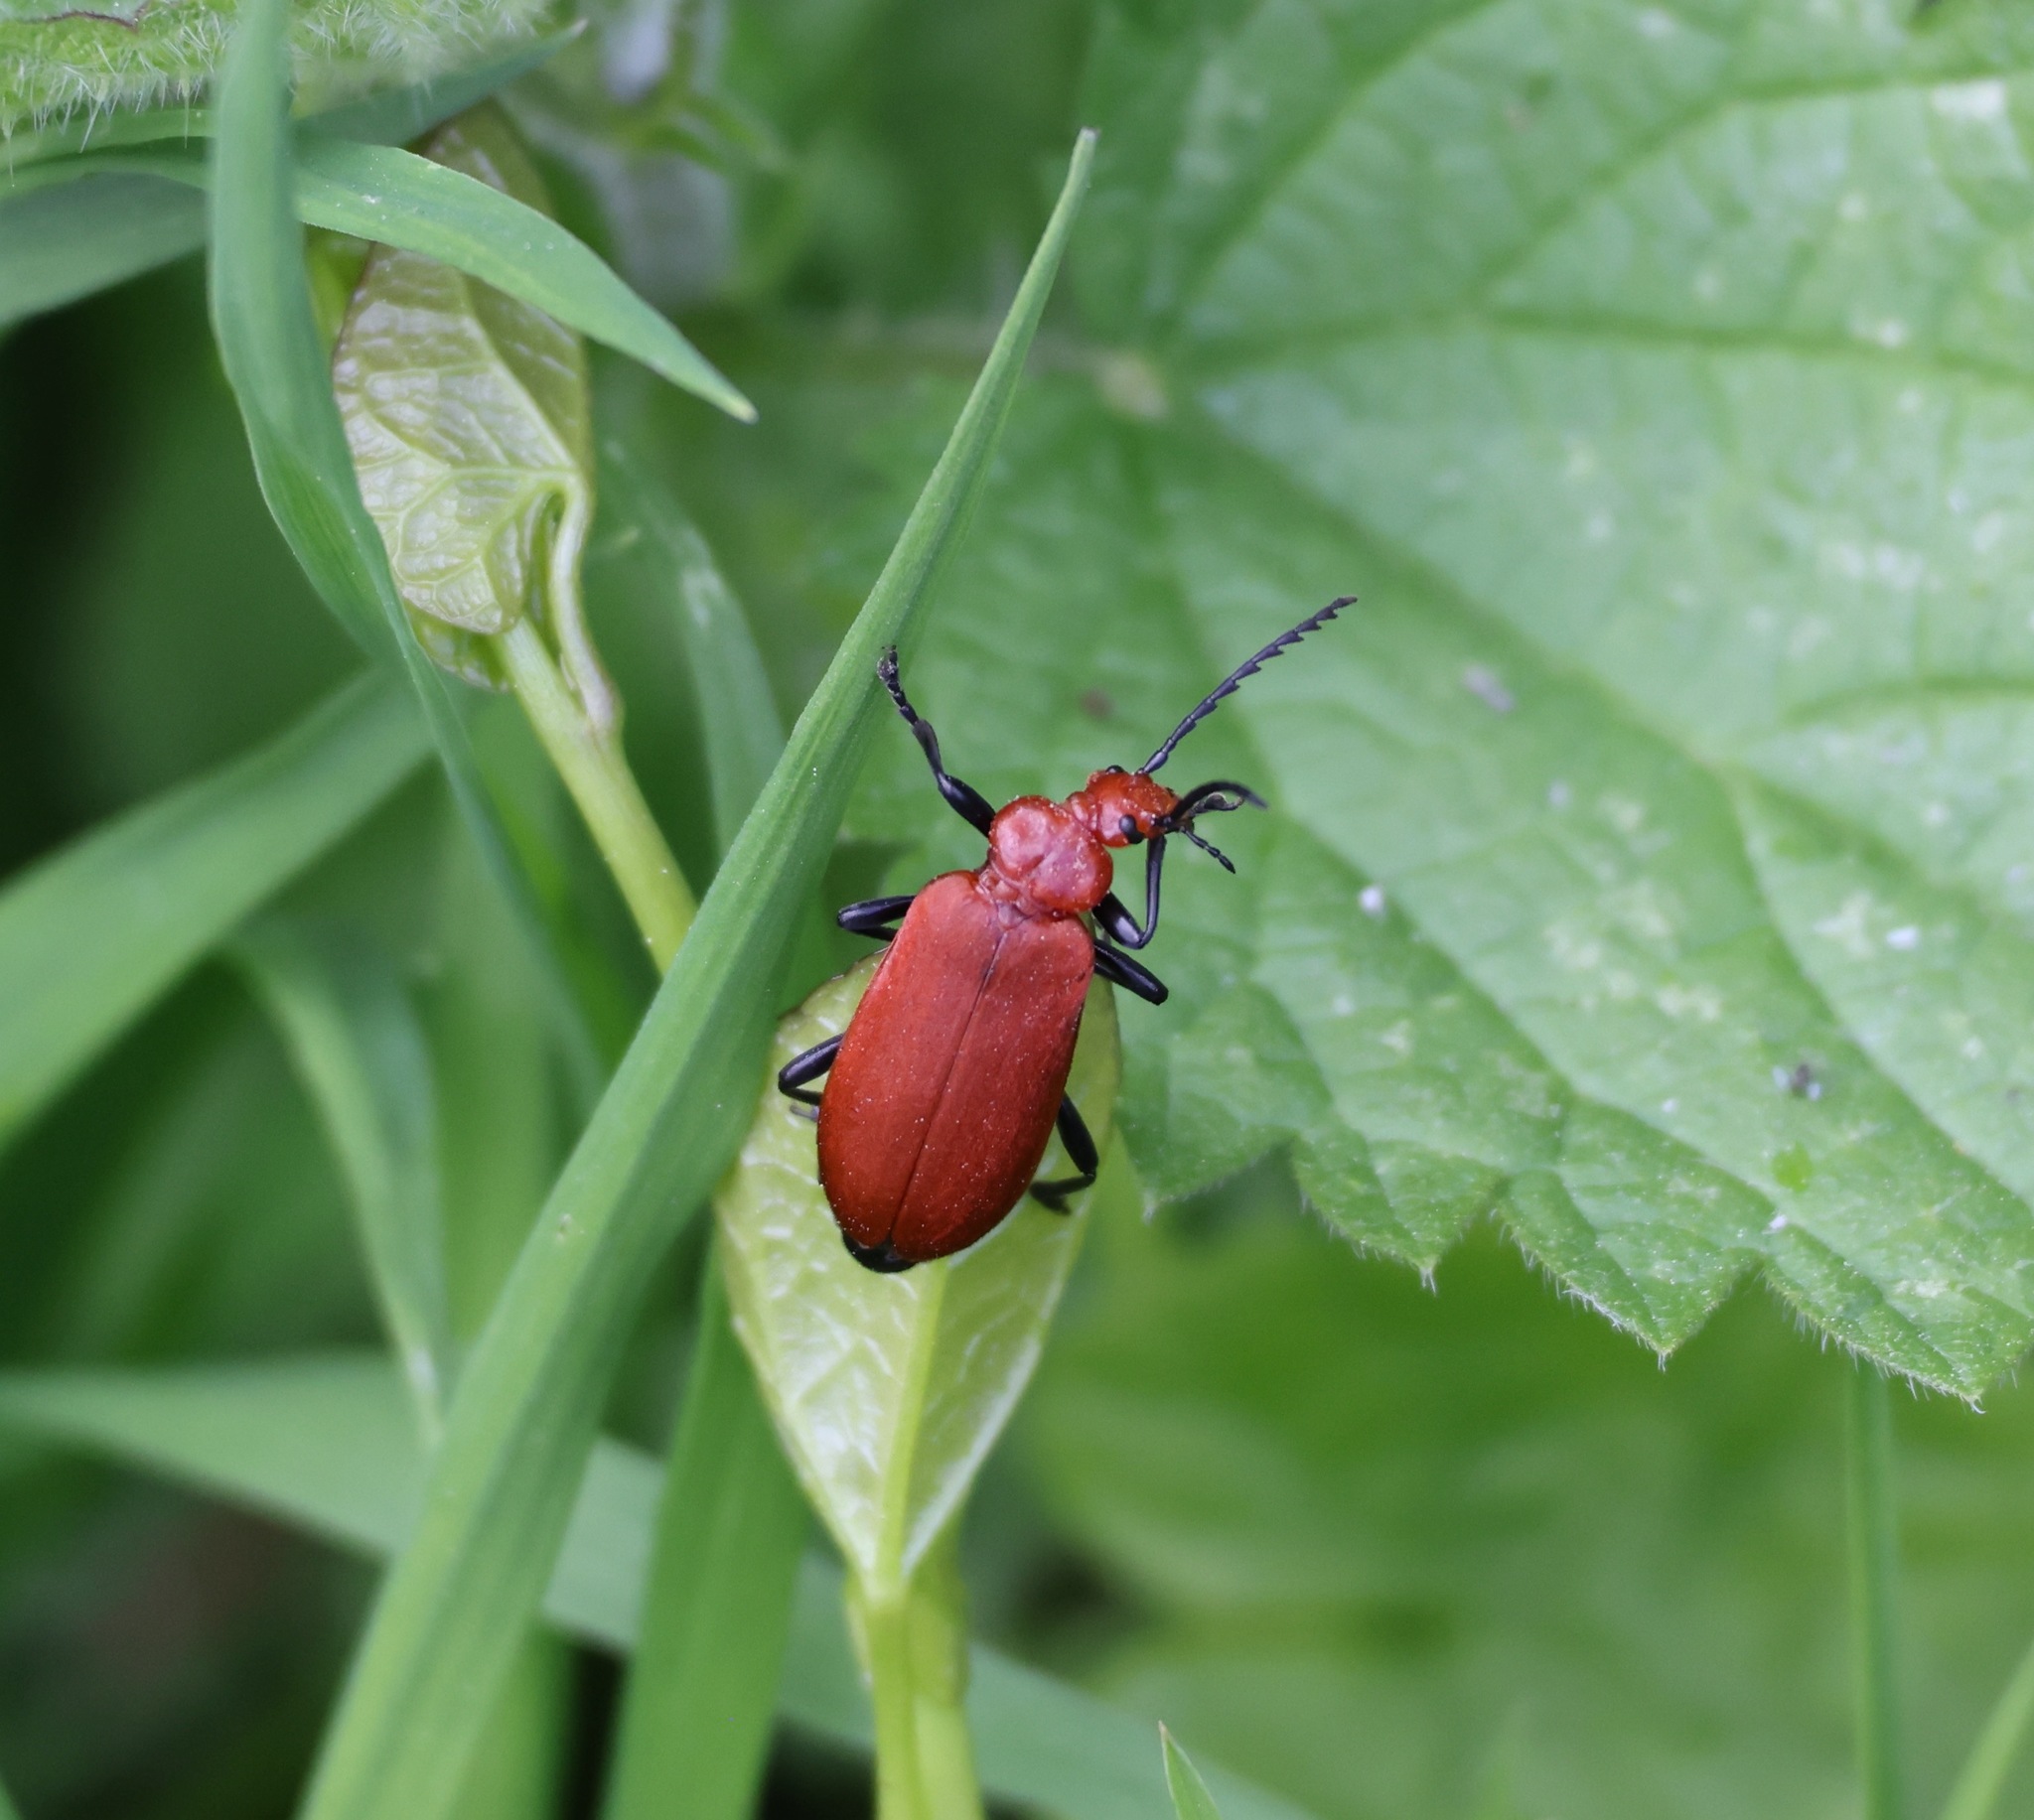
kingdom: Animalia
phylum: Arthropoda
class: Insecta
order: Coleoptera
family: Pyrochroidae
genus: Pyrochroa
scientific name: Pyrochroa serraticornis
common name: Red-headed cardinal beetle
